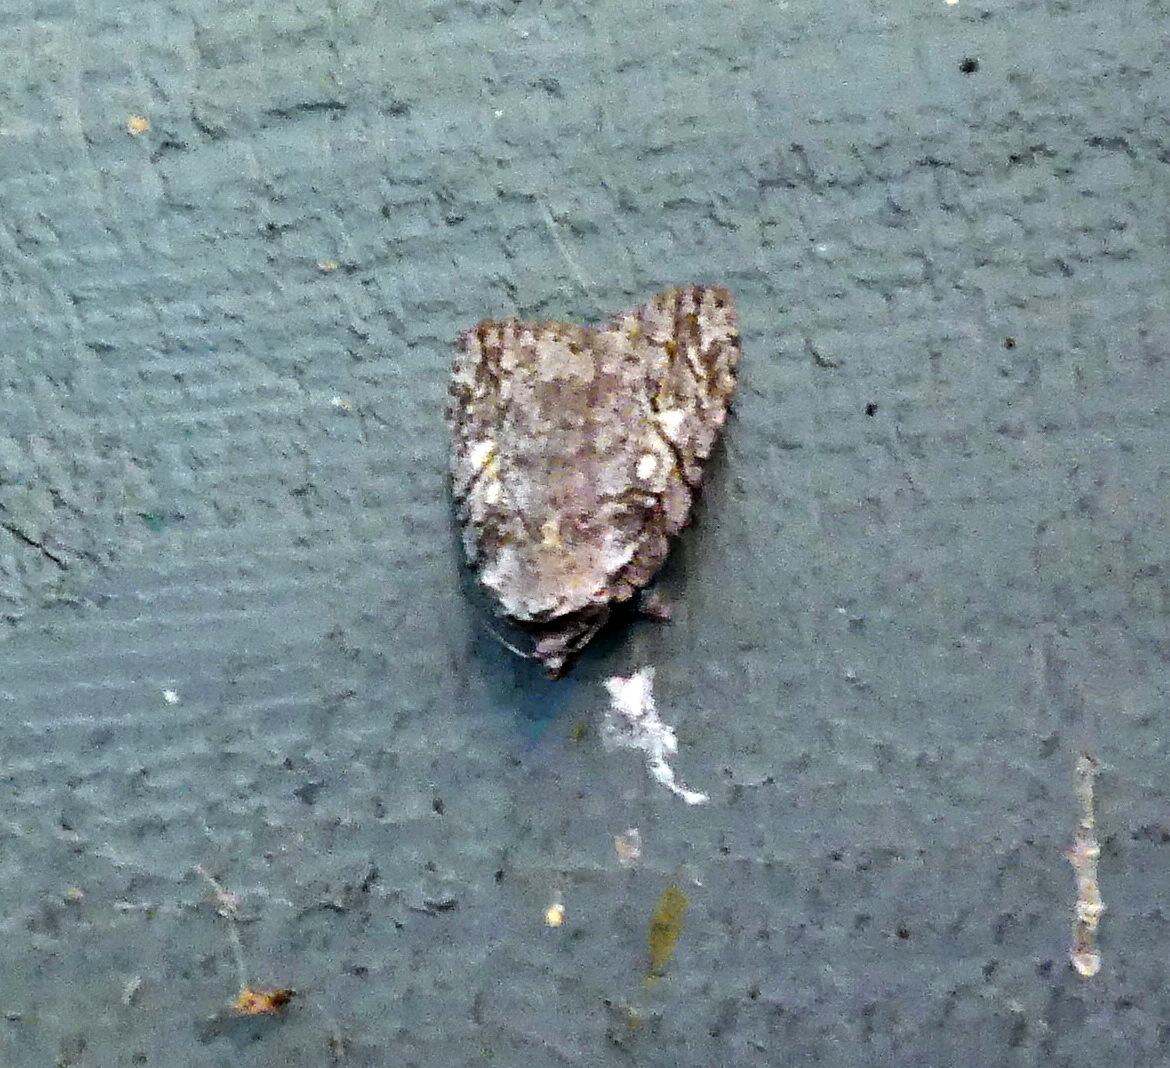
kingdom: Animalia
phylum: Arthropoda
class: Insecta
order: Lepidoptera
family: Noctuidae
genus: Balsa
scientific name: Balsa labecula
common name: White-blotched balsa moth
